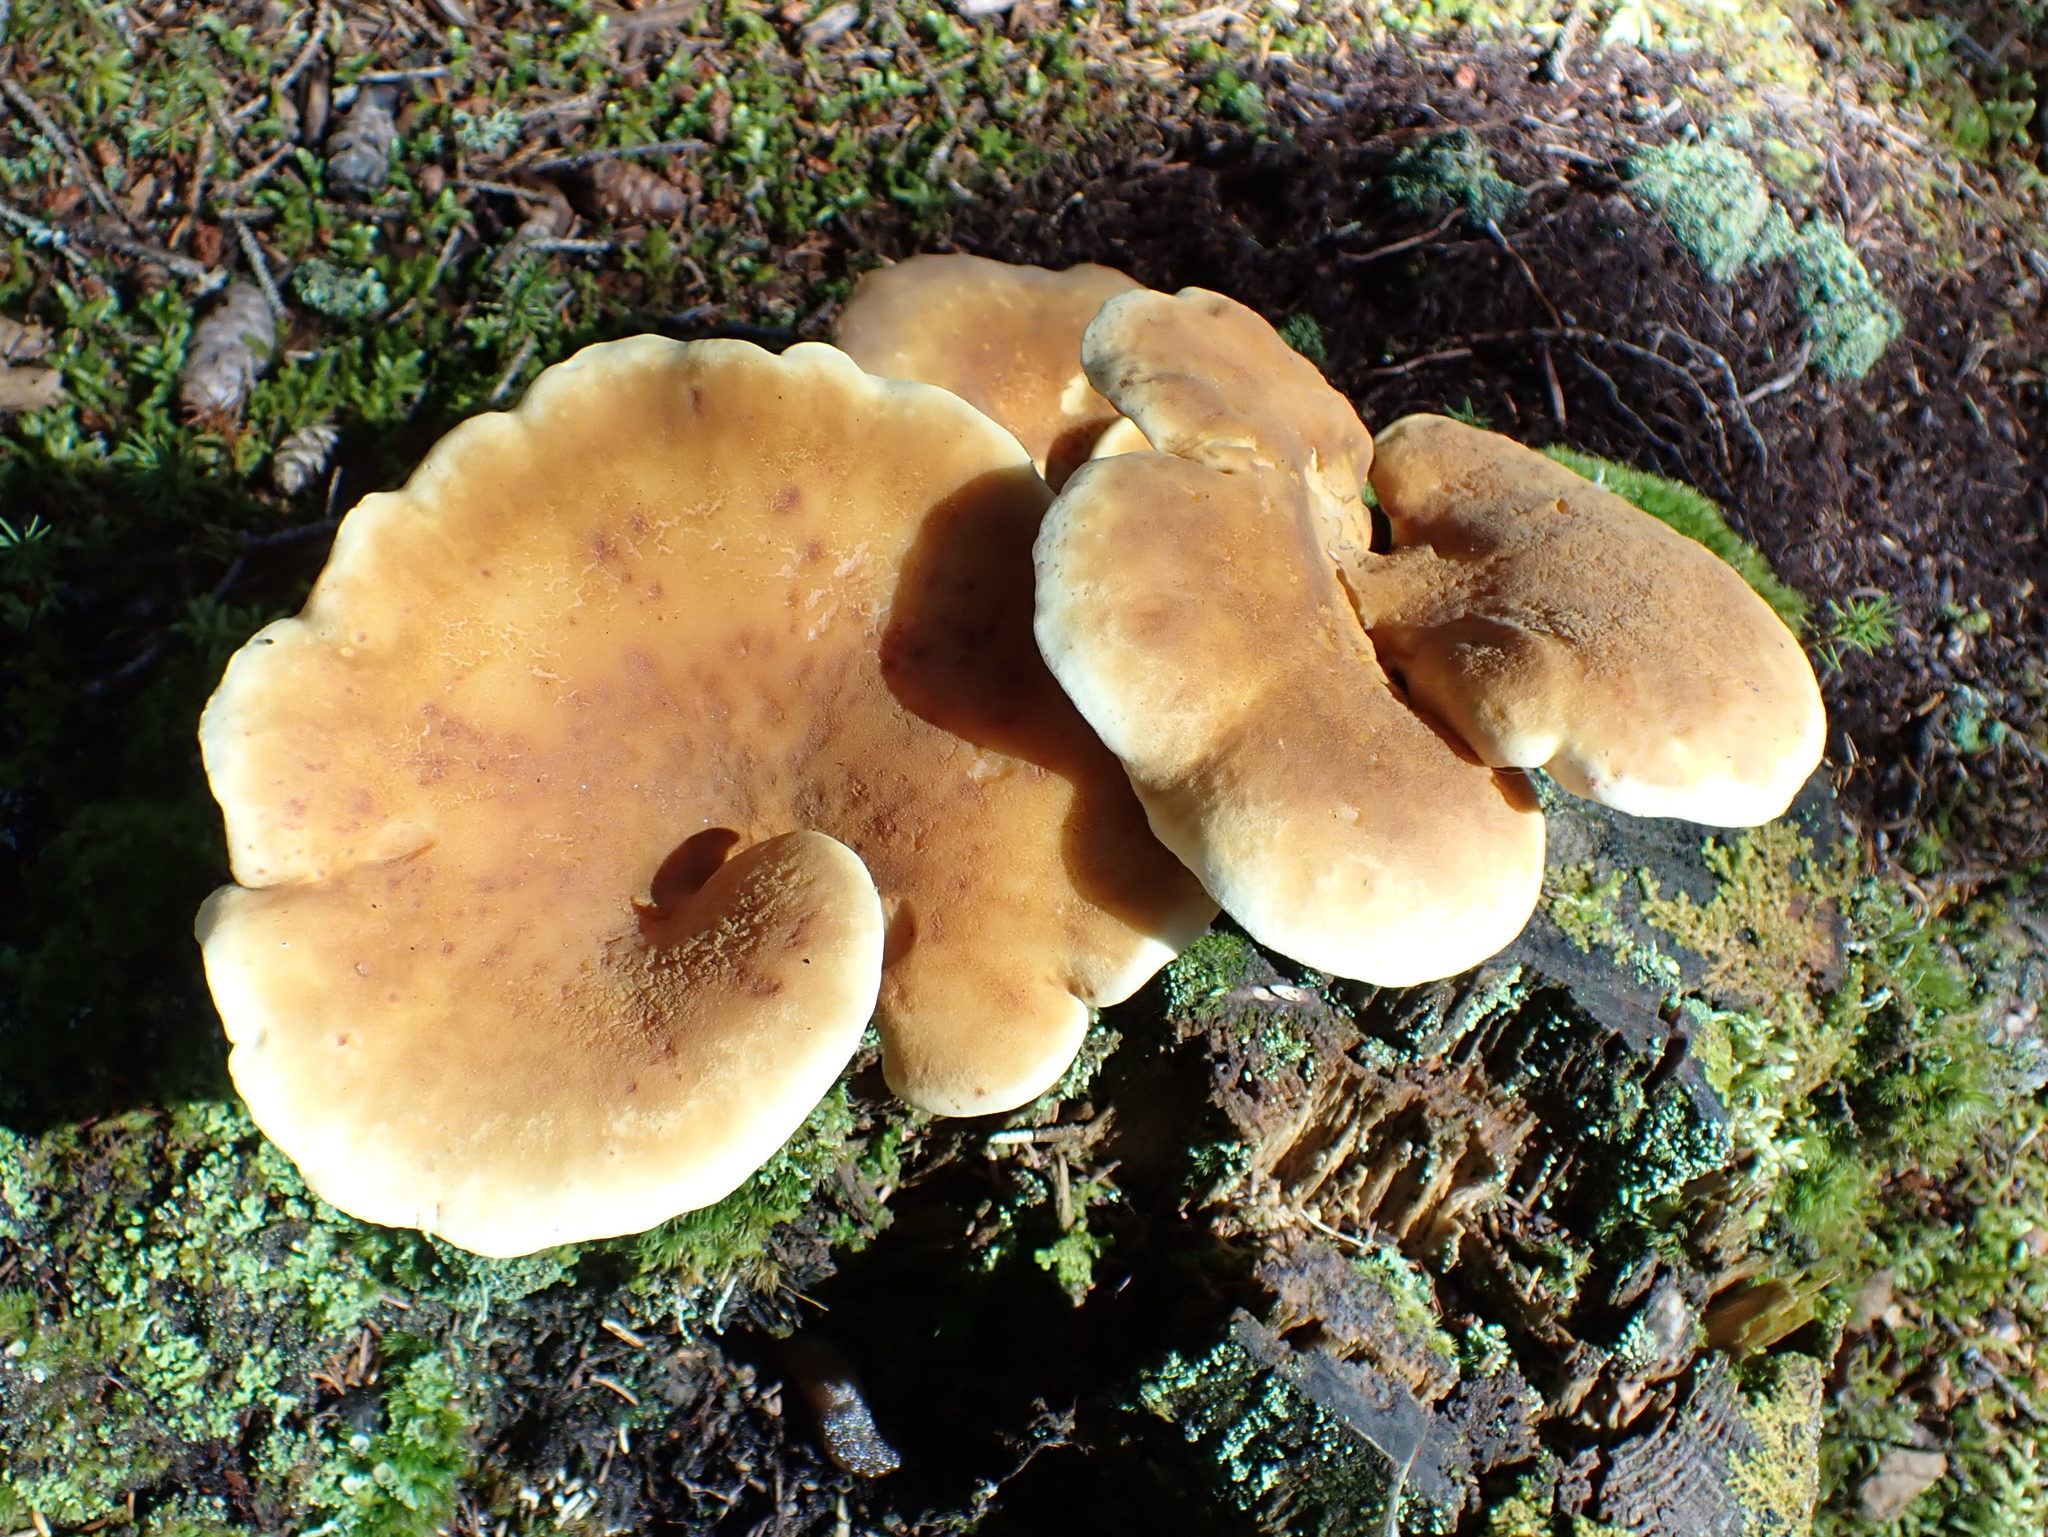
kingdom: Fungi
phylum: Basidiomycota
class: Agaricomycetes
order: Boletales
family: Tapinellaceae
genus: Tapinella
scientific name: Tapinella atrotomentosa
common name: Velvet rollrim
